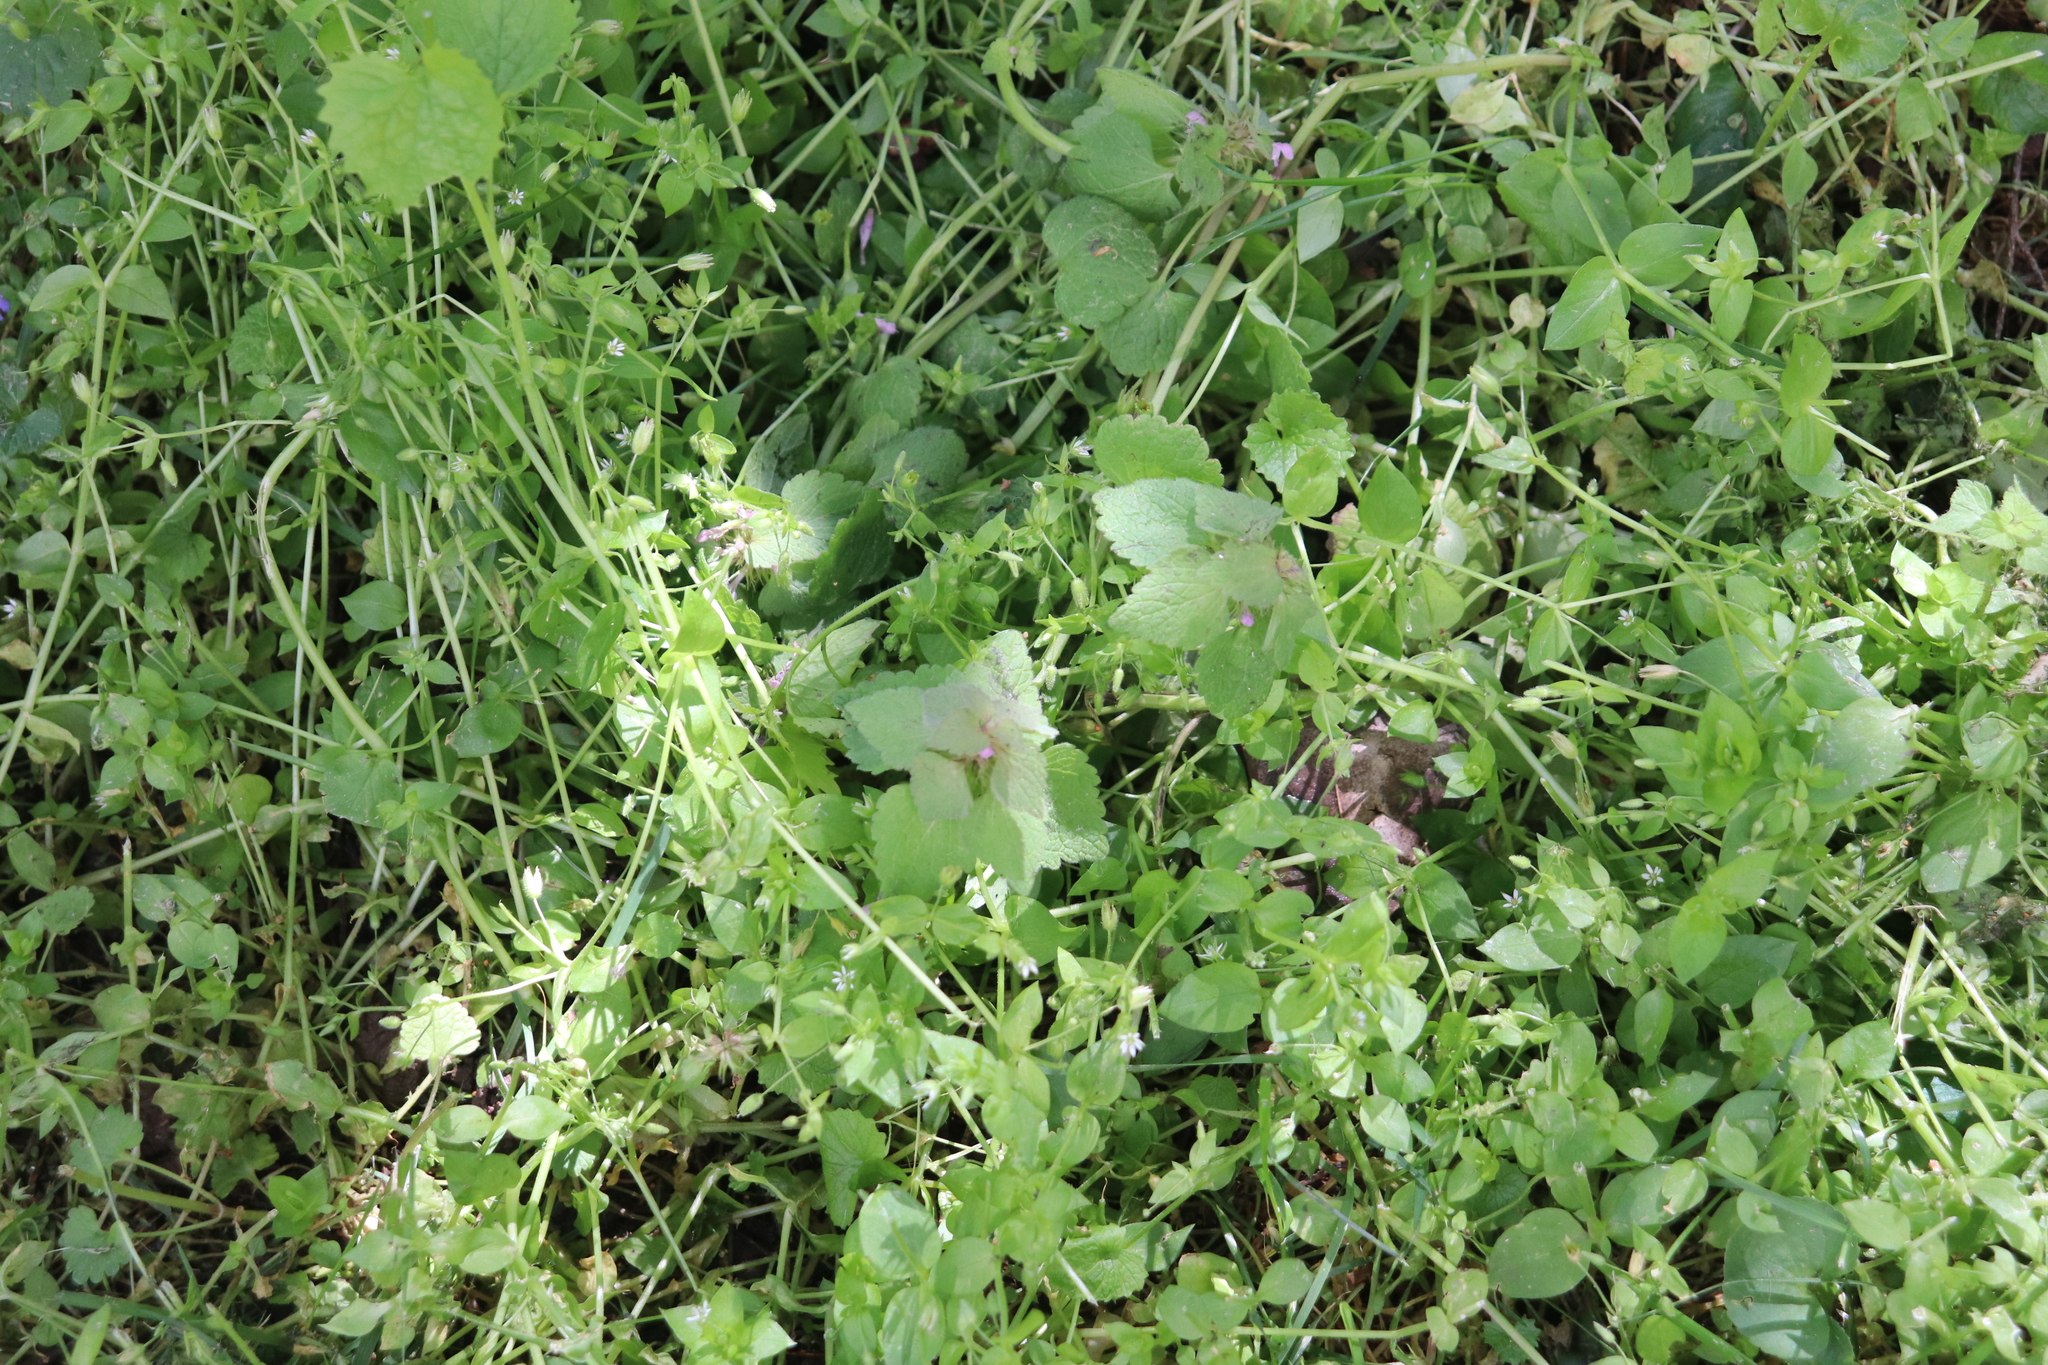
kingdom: Plantae
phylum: Tracheophyta
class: Magnoliopsida
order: Lamiales
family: Lamiaceae
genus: Lamium
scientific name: Lamium purpureum
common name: Red dead-nettle
